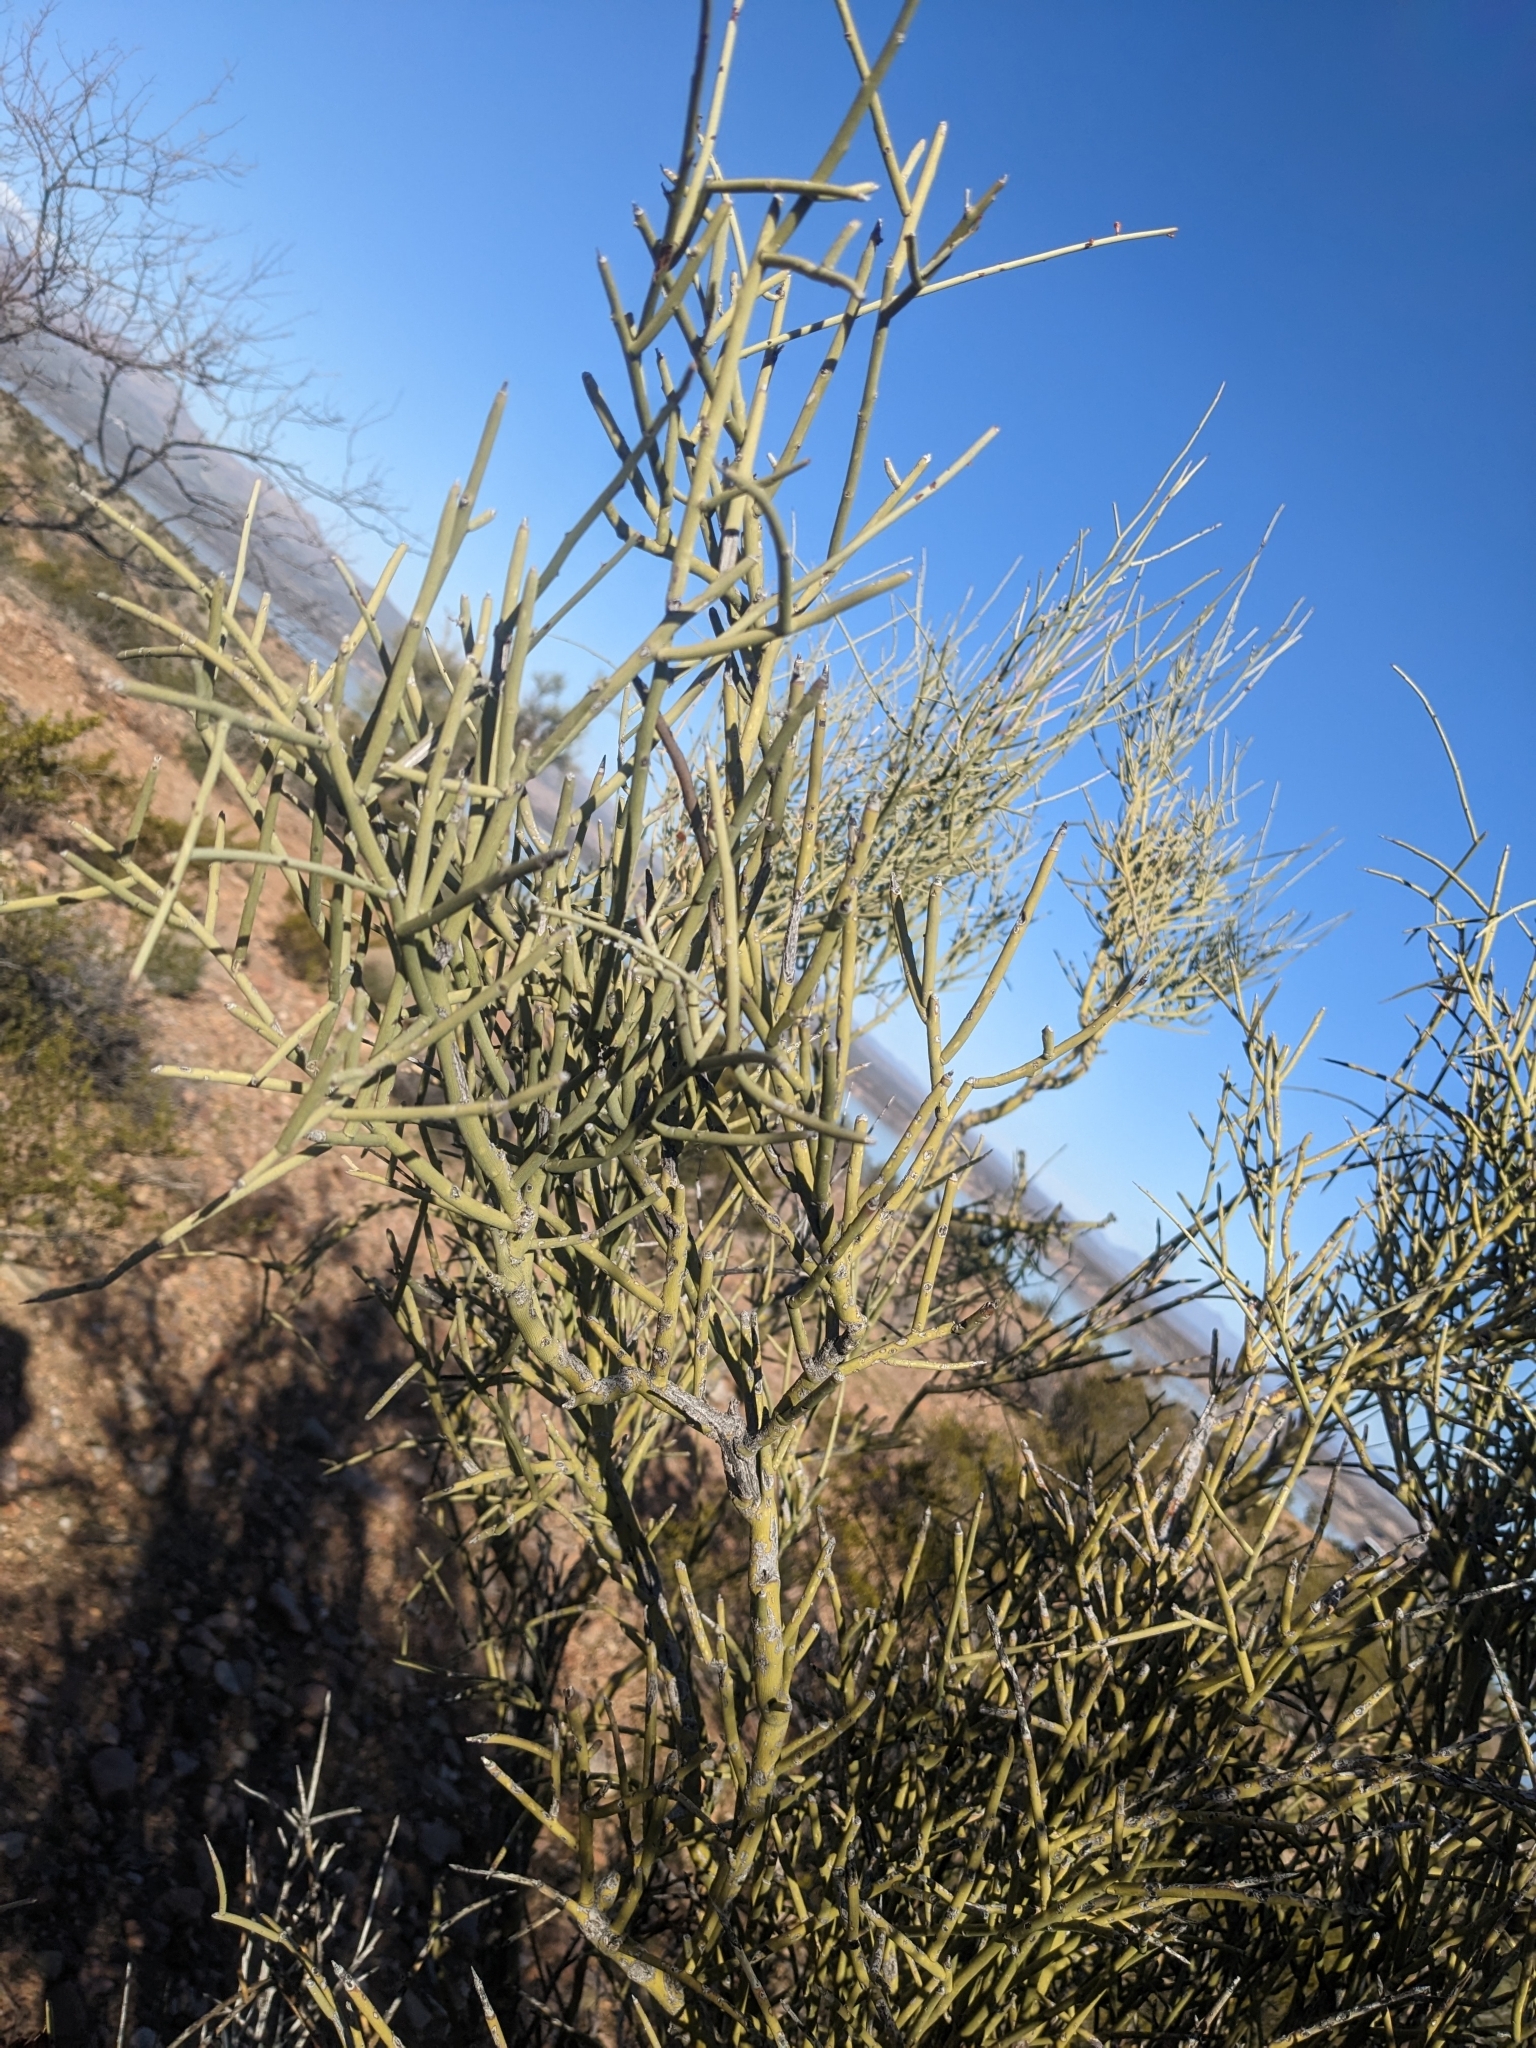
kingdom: Plantae
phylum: Tracheophyta
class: Magnoliopsida
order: Celastrales
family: Celastraceae
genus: Canotia
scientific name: Canotia holacantha
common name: Crucifixion thorns
